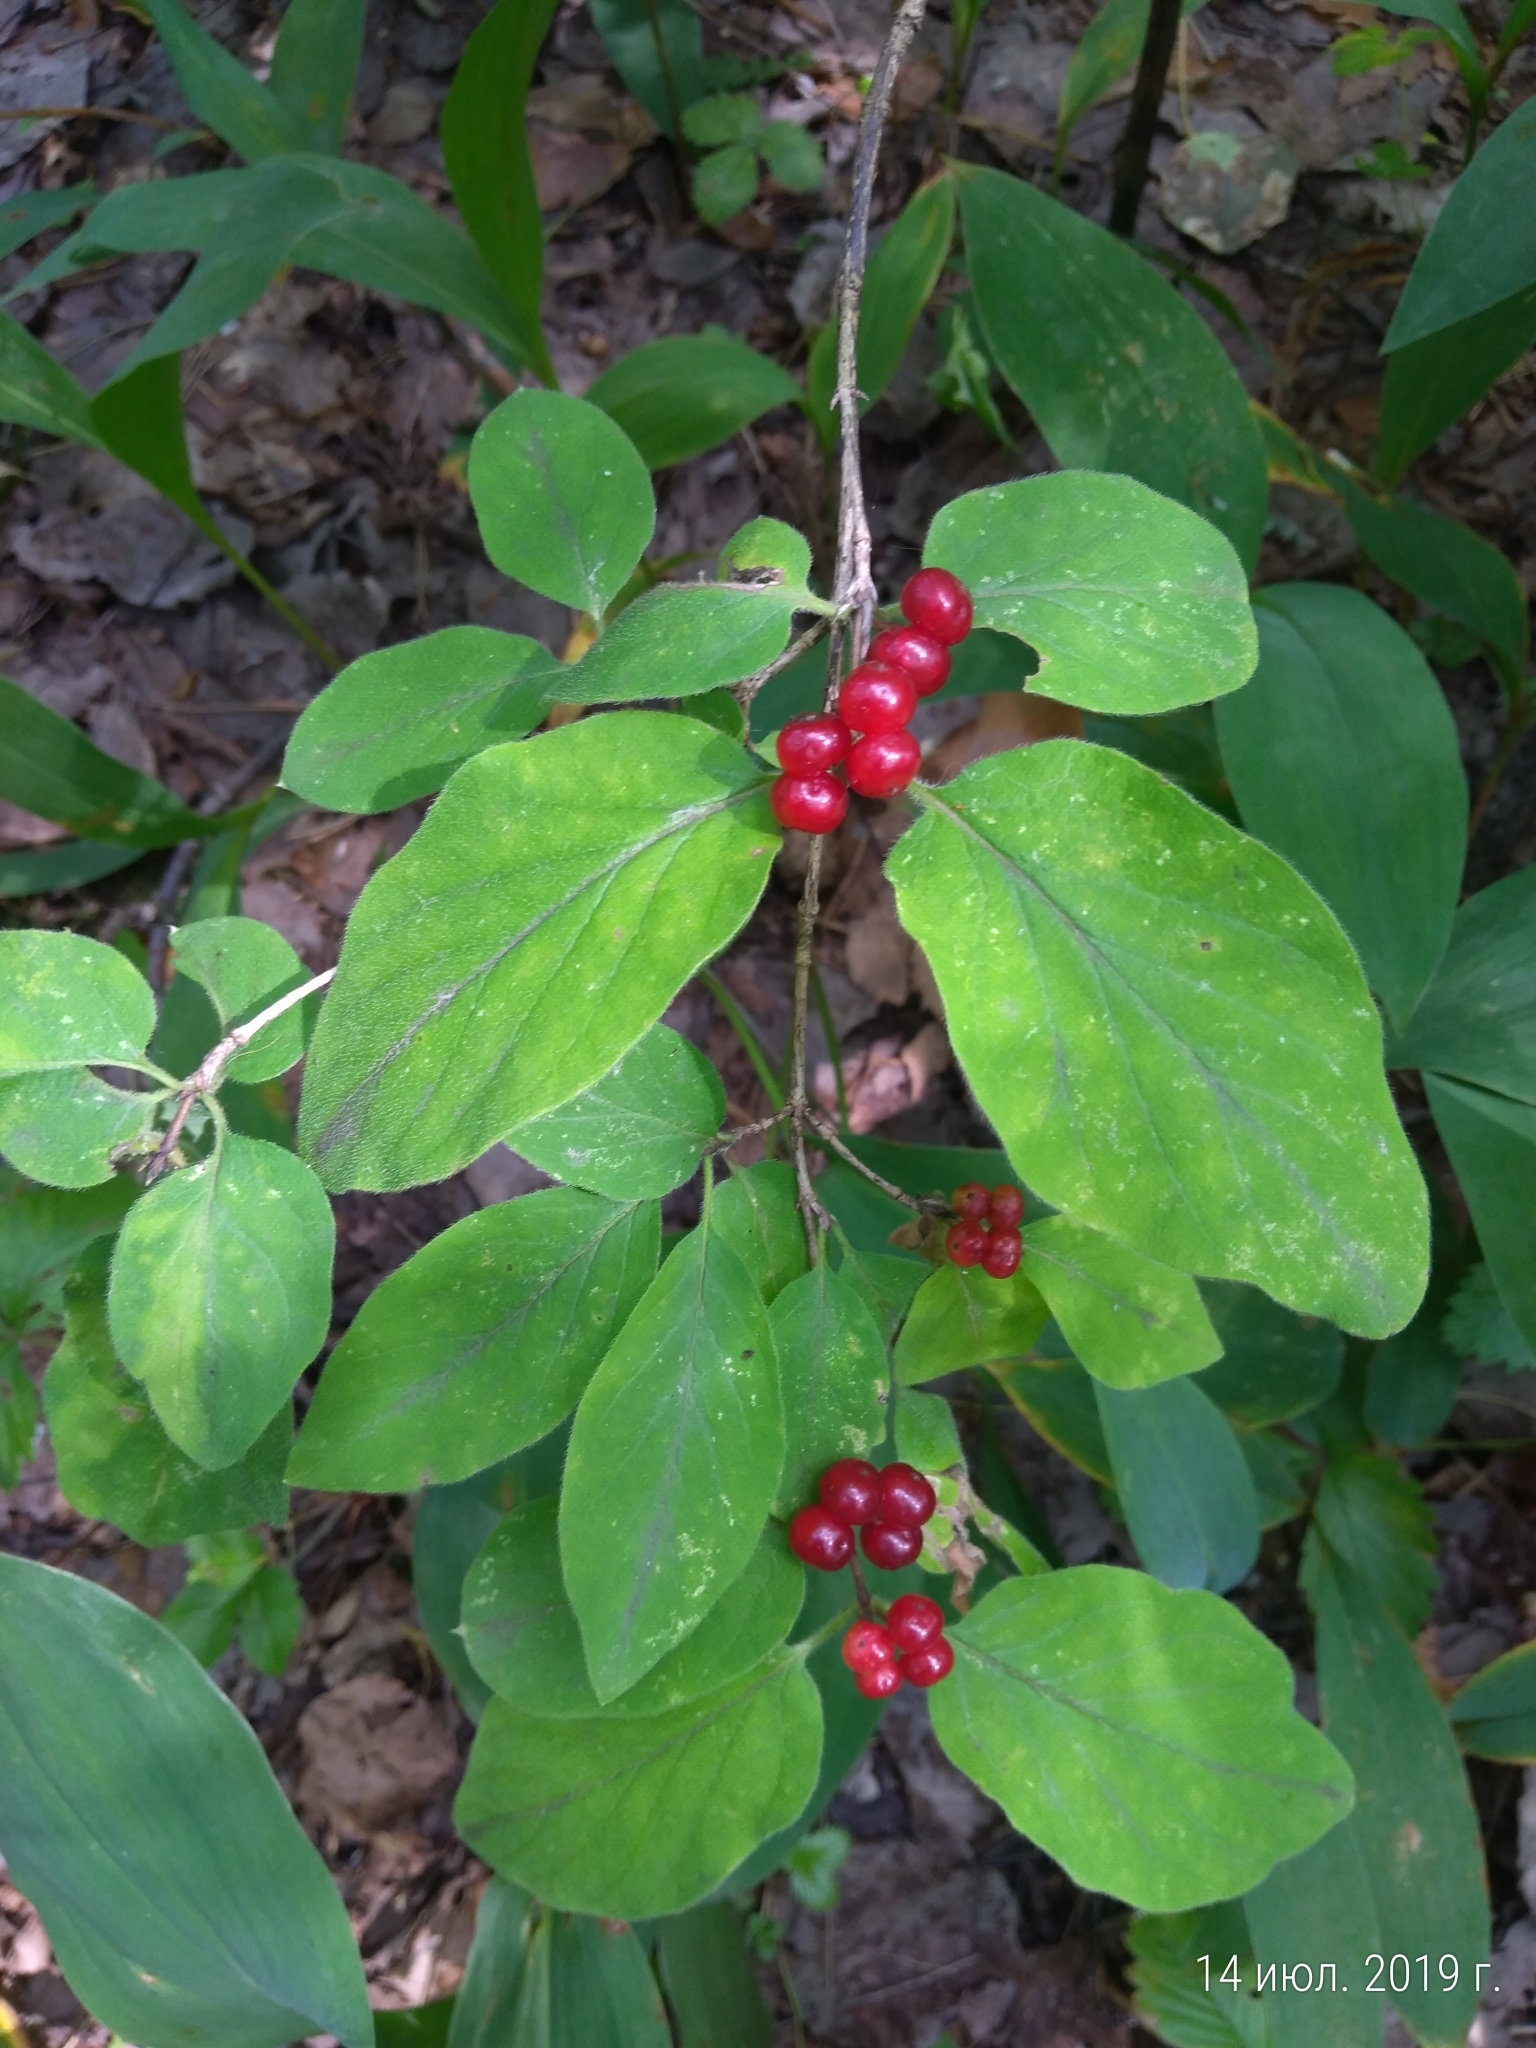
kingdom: Plantae
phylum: Tracheophyta
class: Magnoliopsida
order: Dipsacales
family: Caprifoliaceae
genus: Lonicera
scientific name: Lonicera xylosteum
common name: Fly honeysuckle
